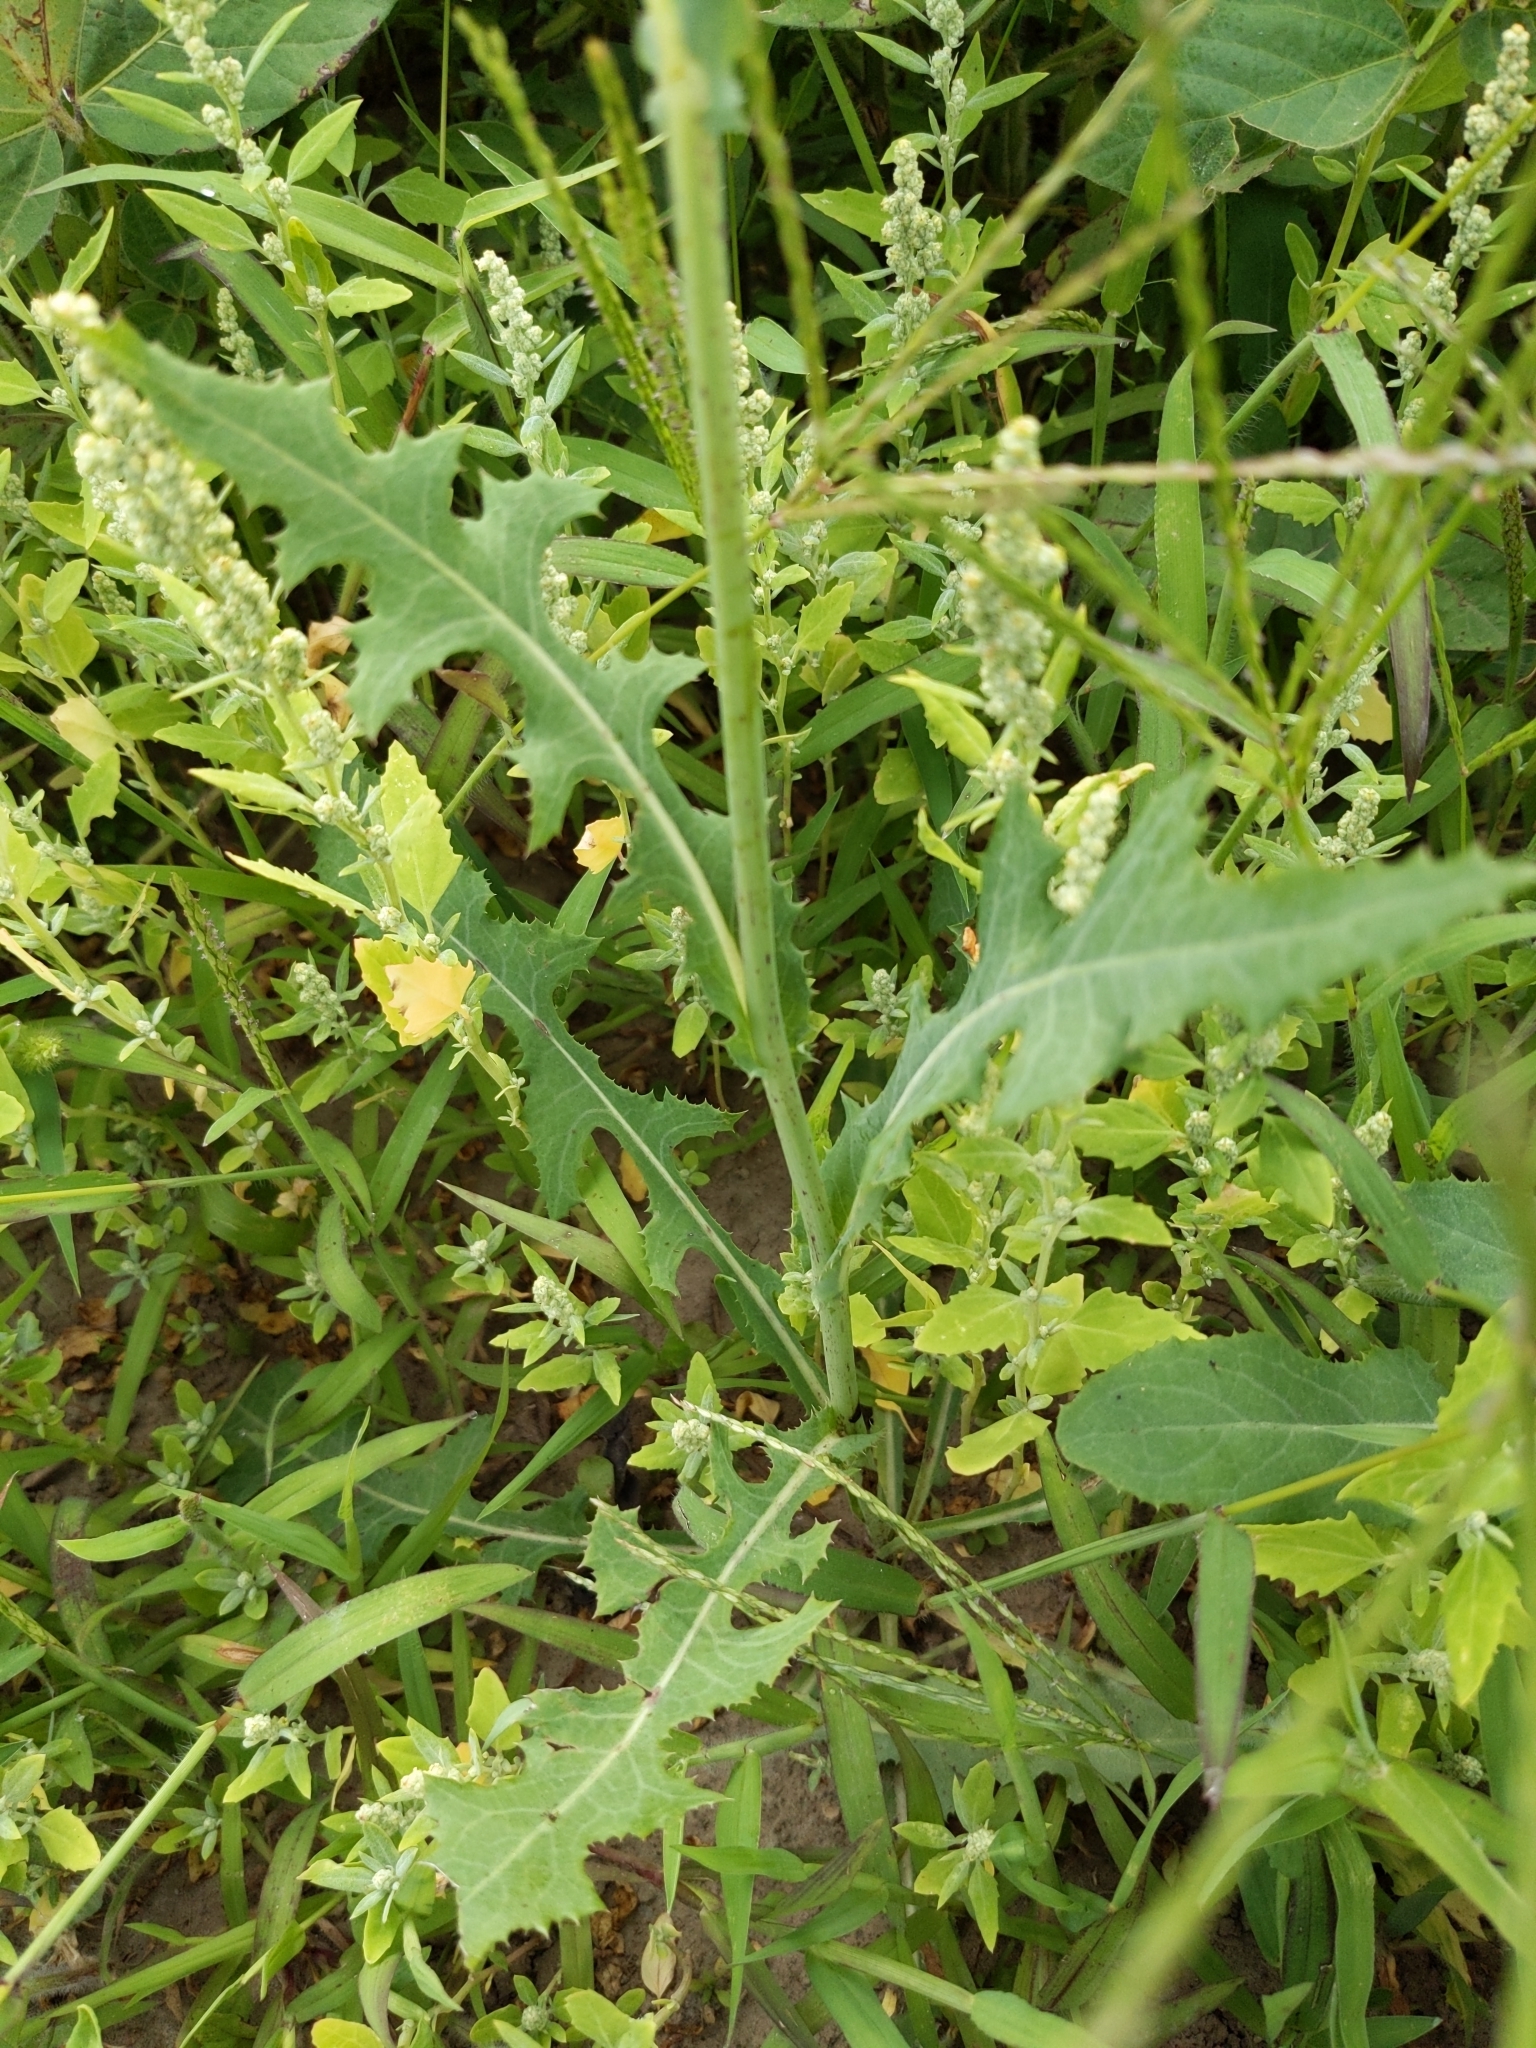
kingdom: Plantae
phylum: Tracheophyta
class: Magnoliopsida
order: Asterales
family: Asteraceae
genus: Sonchus
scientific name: Sonchus arvensis
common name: Perennial sow-thistle
